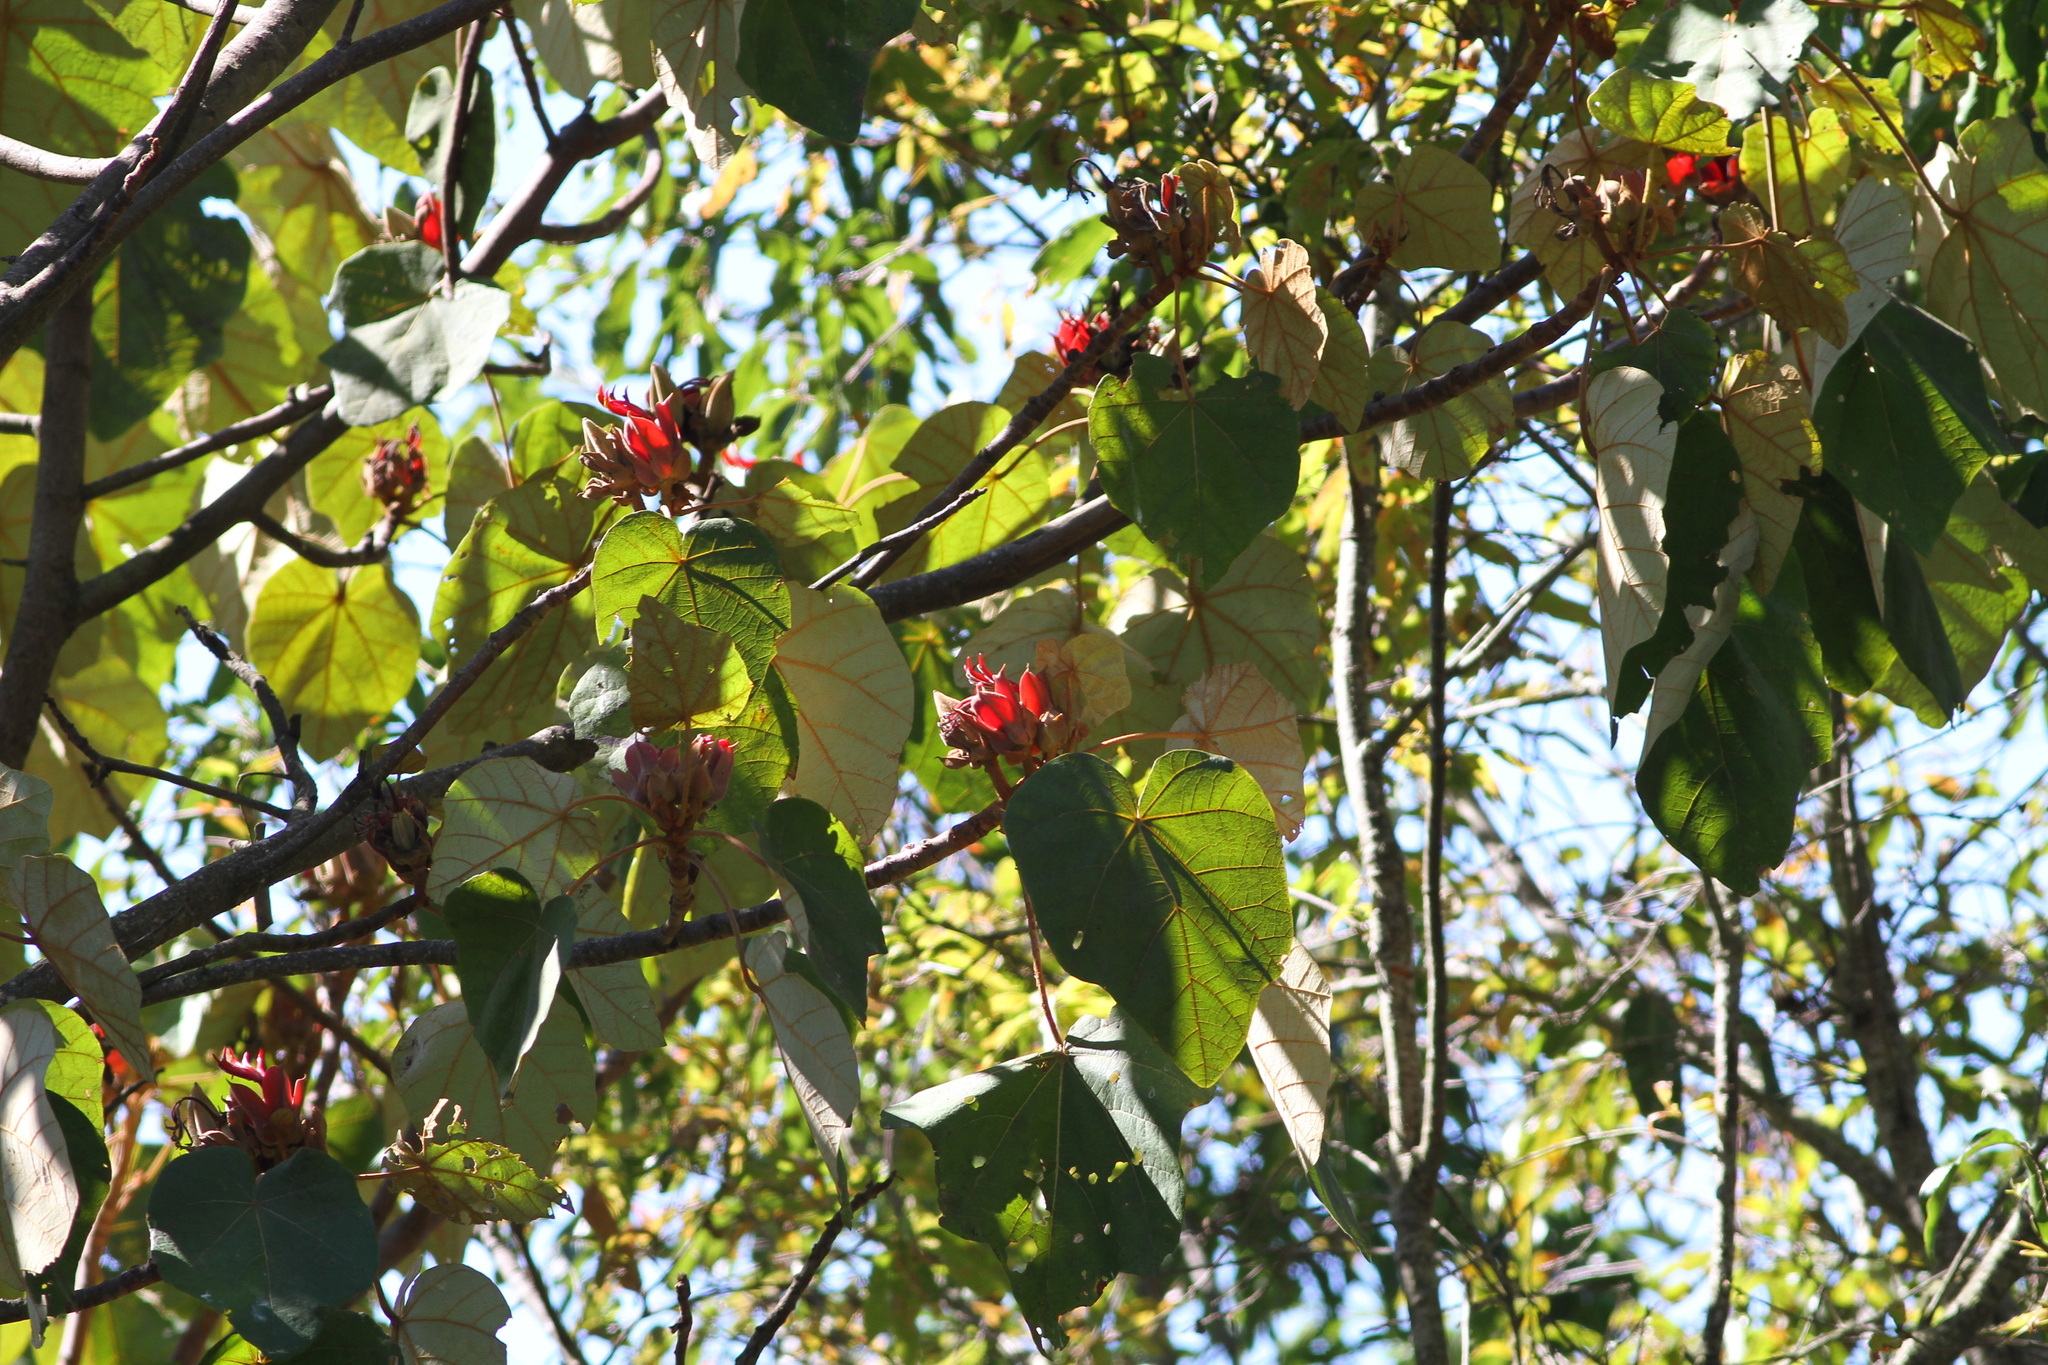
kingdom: Plantae
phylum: Tracheophyta
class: Magnoliopsida
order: Malvales
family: Malvaceae
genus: Chiranthodendron
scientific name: Chiranthodendron pentadactylon
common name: Mexican-hat-plant
